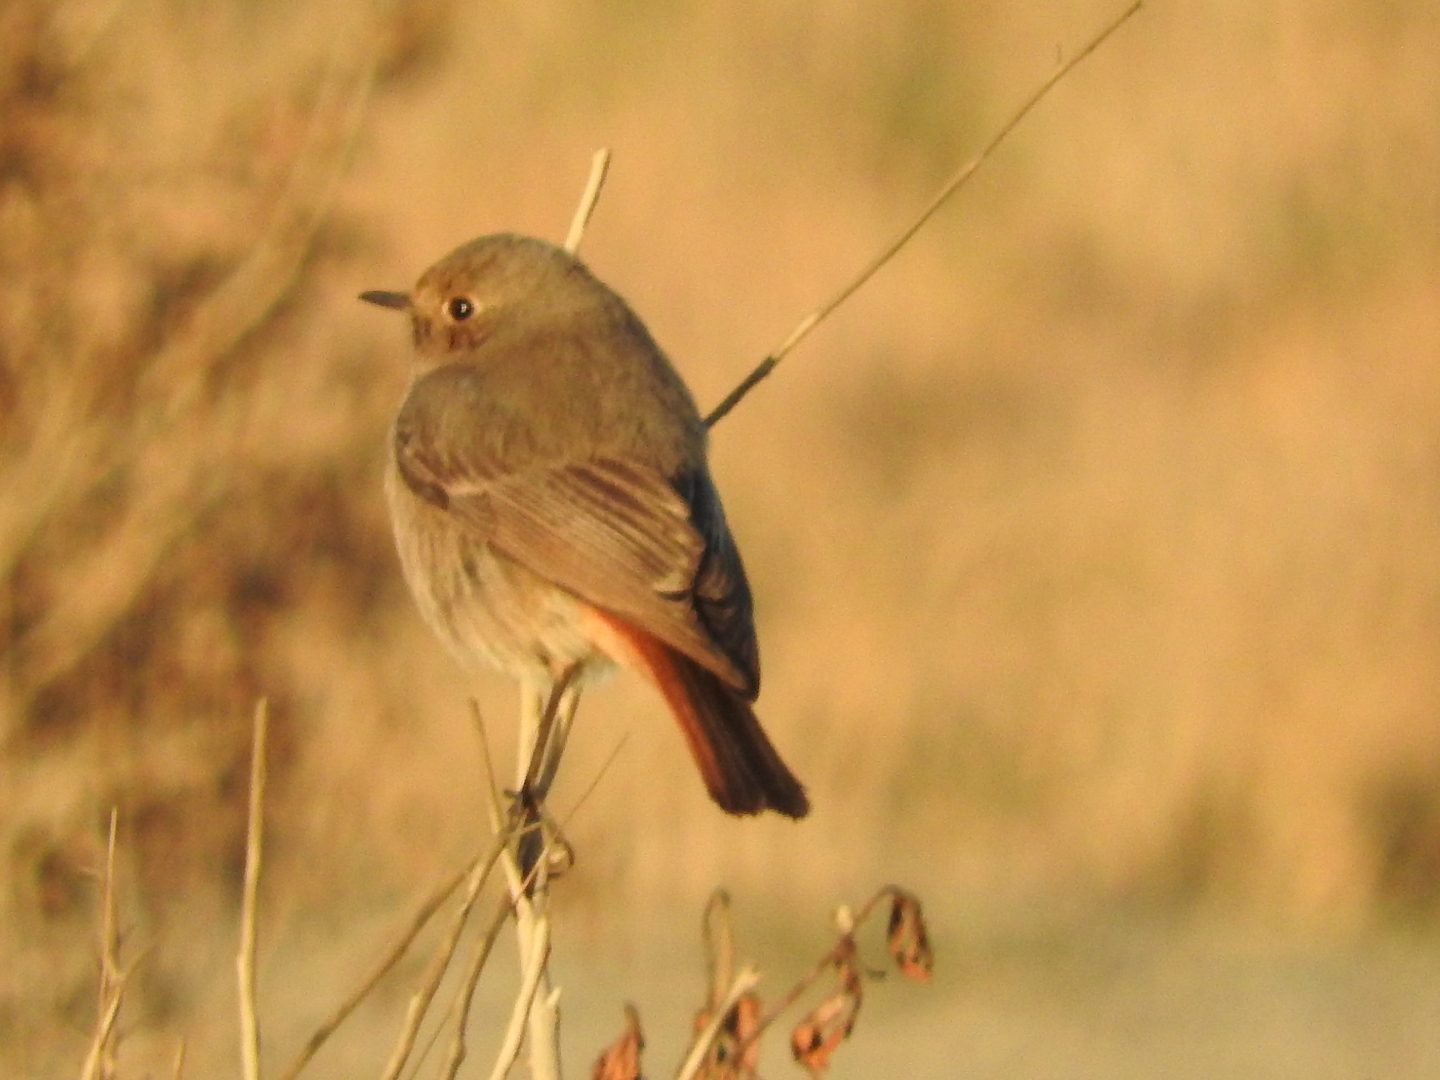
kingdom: Animalia
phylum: Chordata
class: Aves
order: Passeriformes
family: Muscicapidae
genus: Phoenicurus
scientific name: Phoenicurus ochruros
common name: Black redstart
